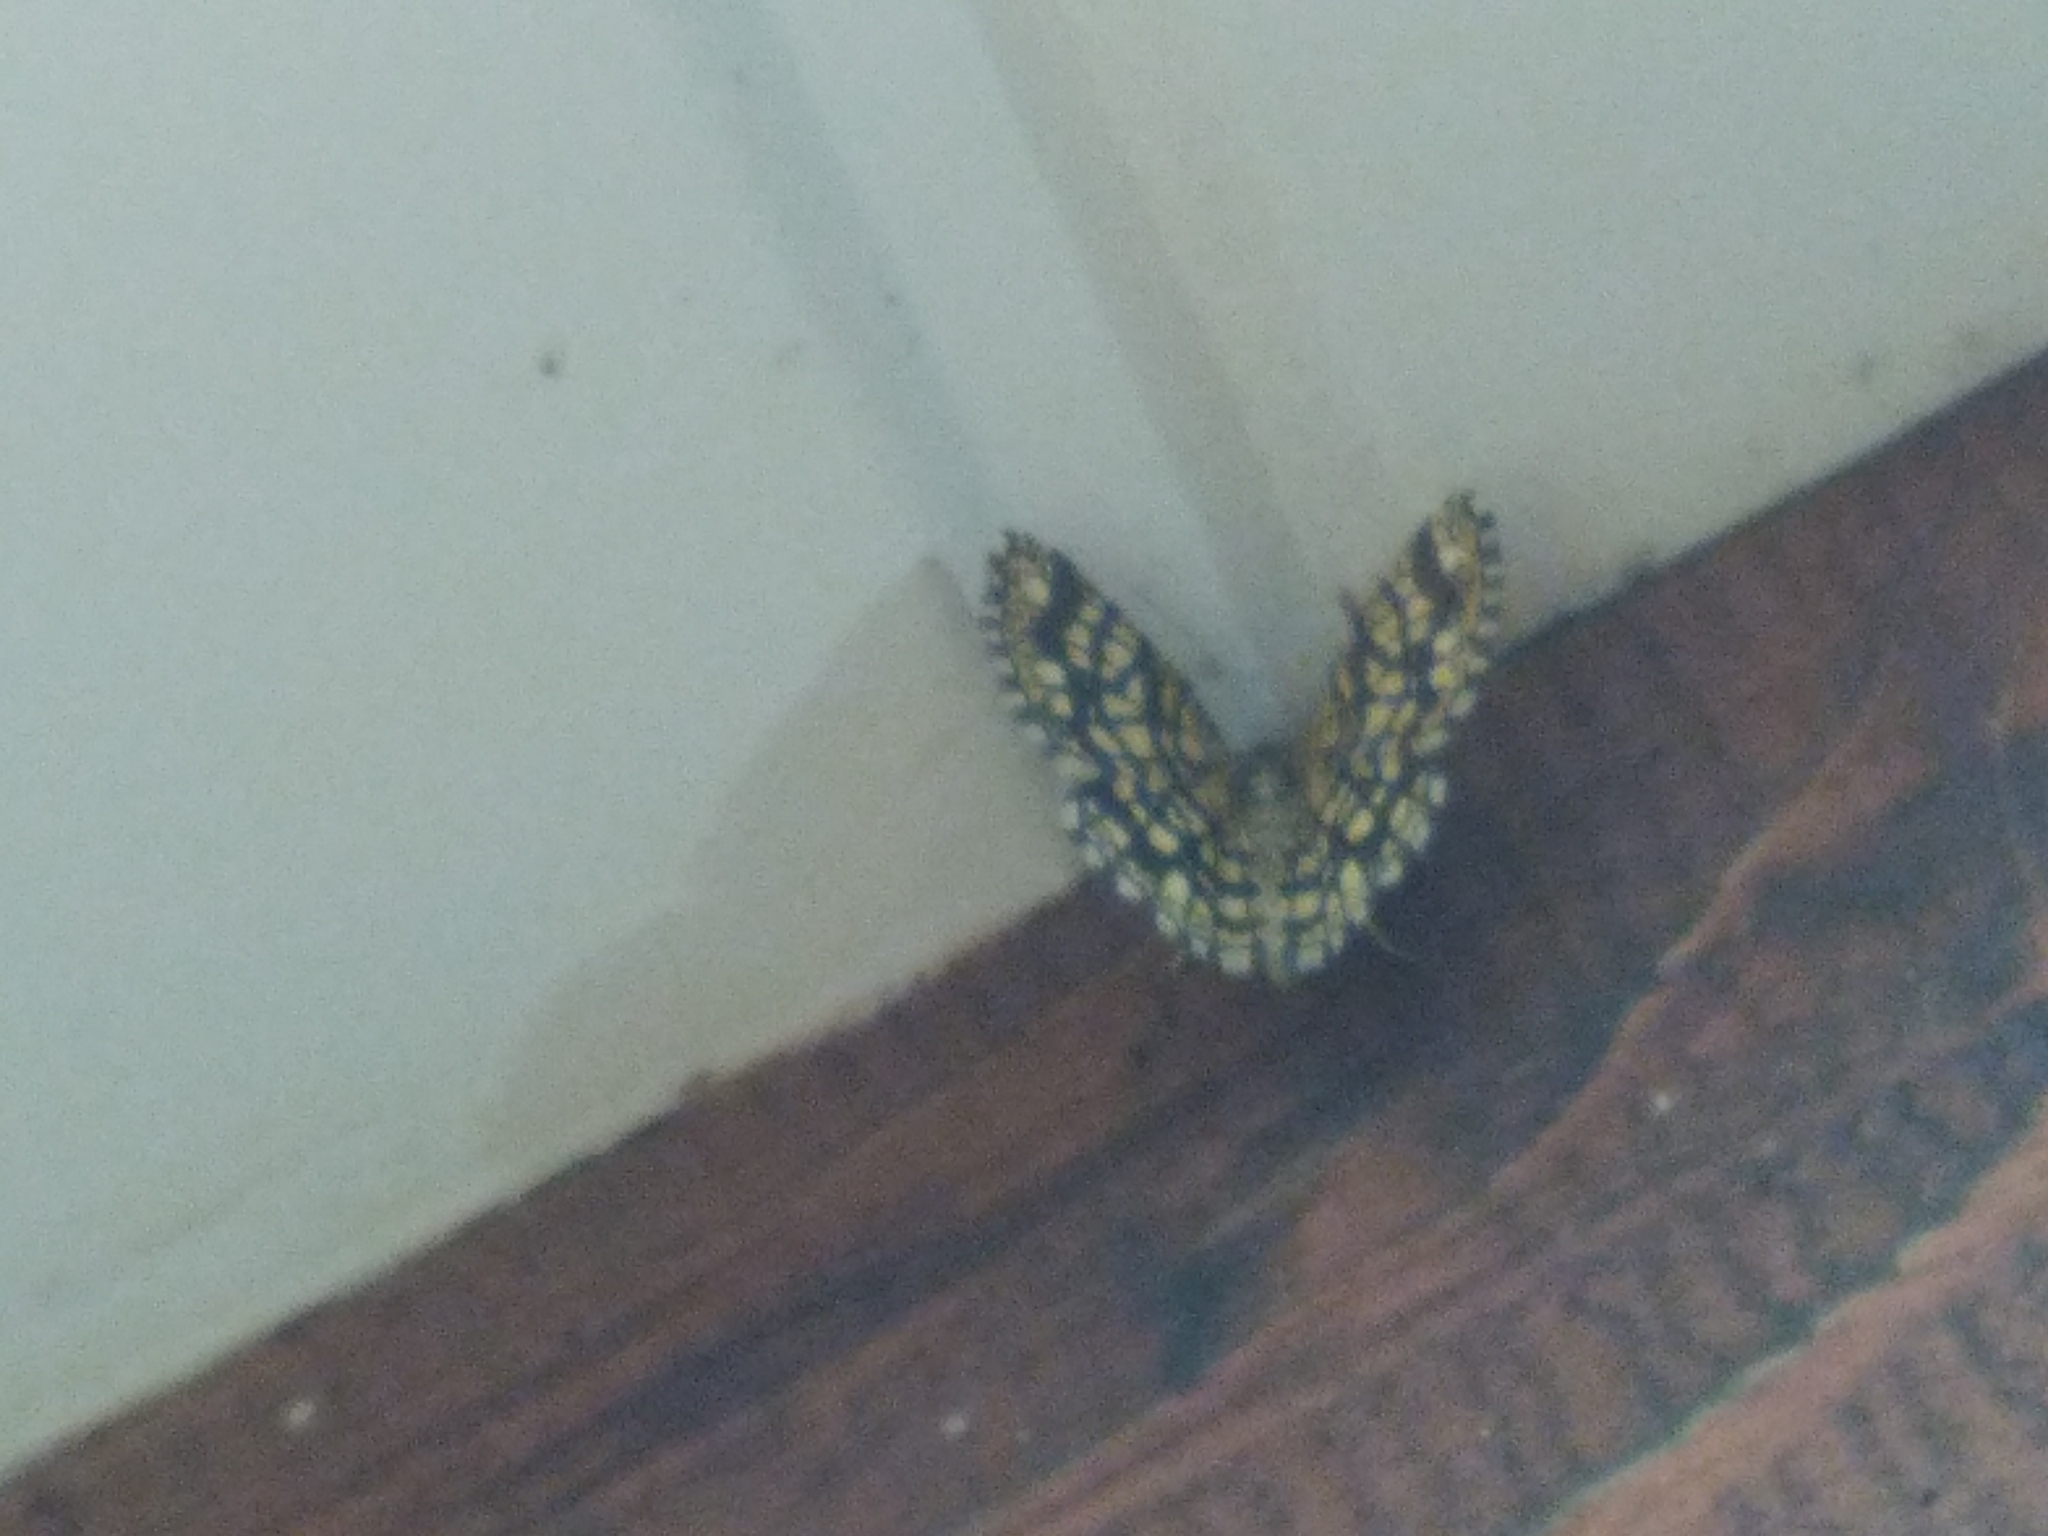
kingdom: Animalia
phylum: Arthropoda
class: Insecta
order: Lepidoptera
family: Geometridae
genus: Chiasmia
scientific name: Chiasmia clathrata
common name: Latticed heath
